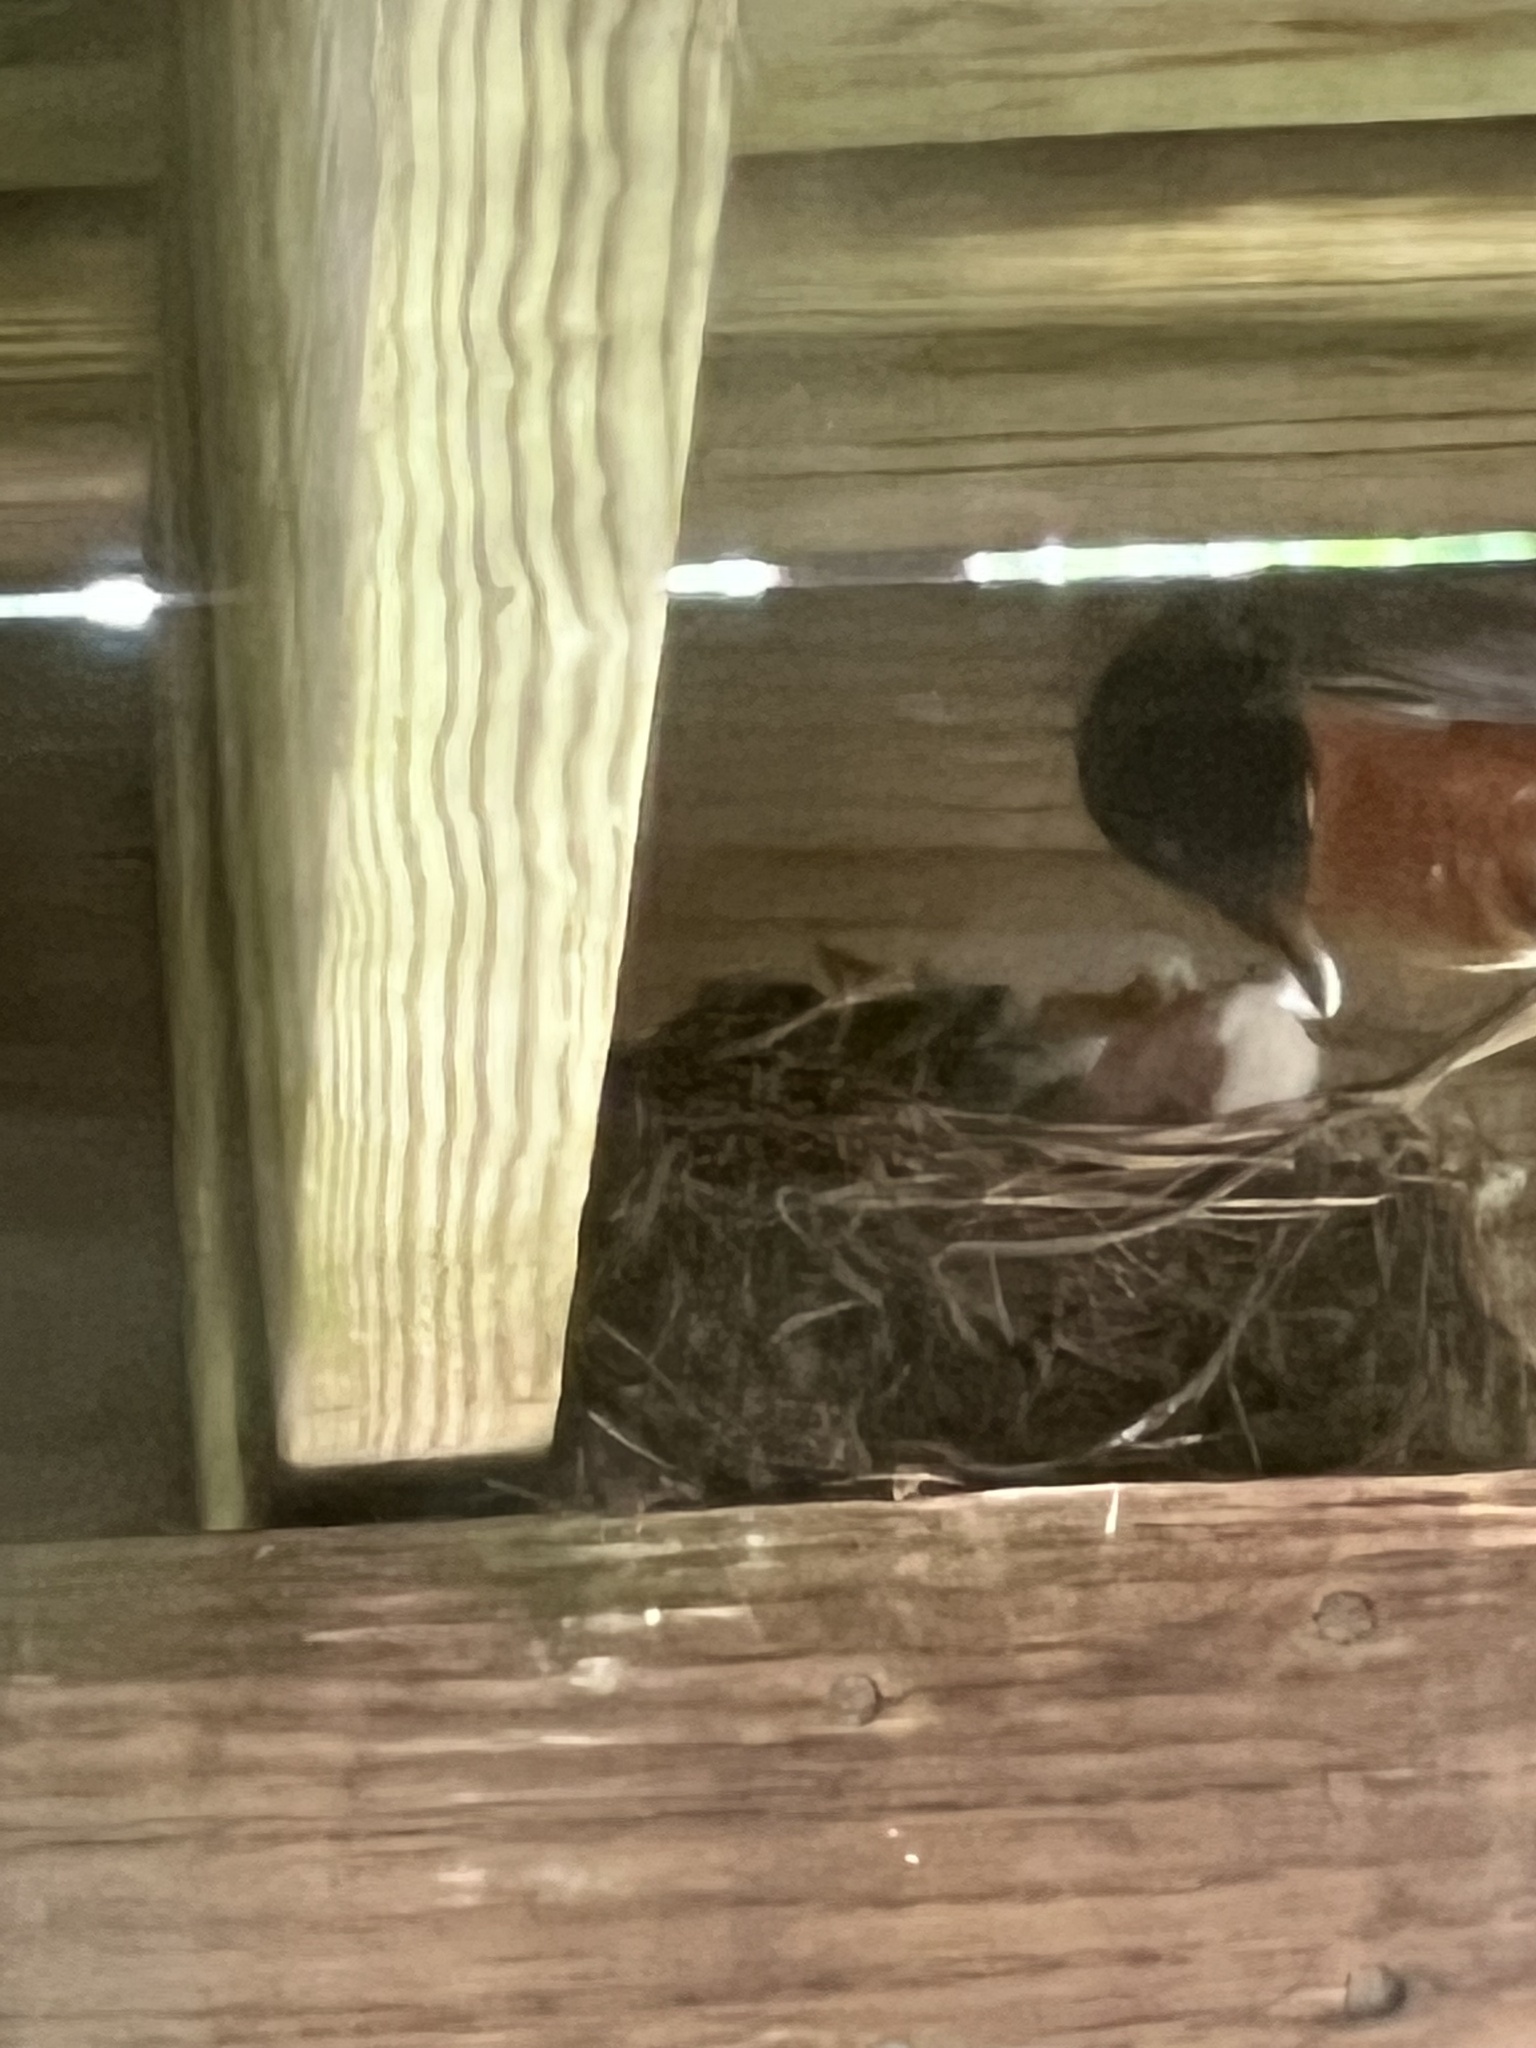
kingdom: Animalia
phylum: Chordata
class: Aves
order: Passeriformes
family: Turdidae
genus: Turdus
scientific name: Turdus migratorius
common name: American robin
